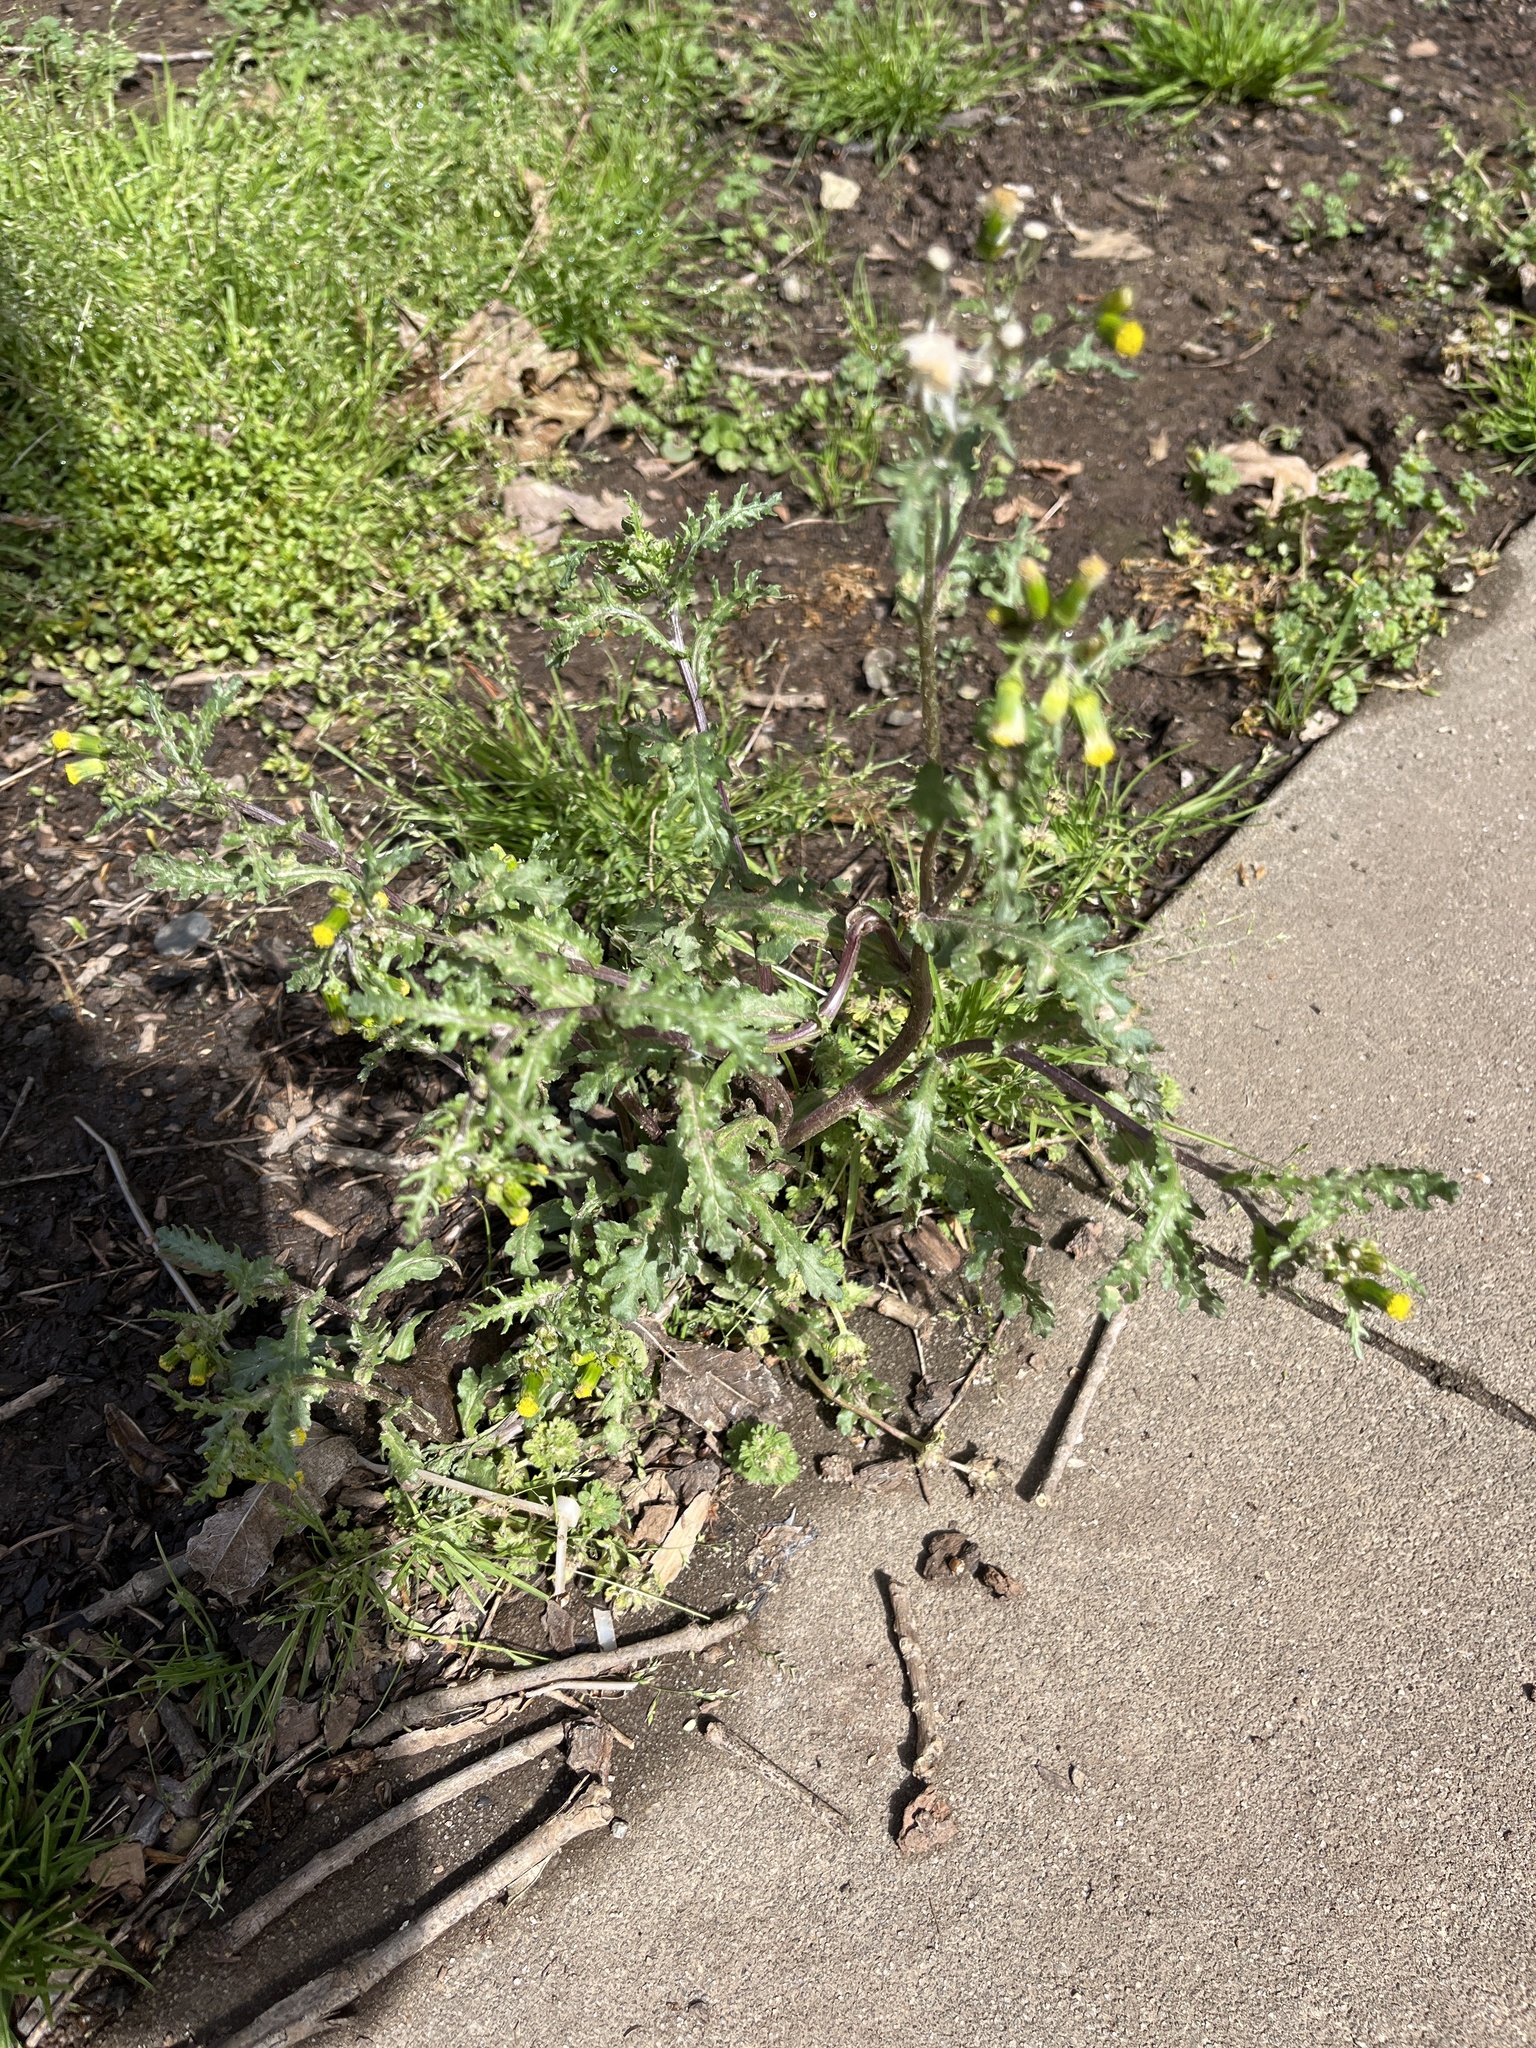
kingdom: Plantae
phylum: Tracheophyta
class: Magnoliopsida
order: Asterales
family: Asteraceae
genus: Senecio
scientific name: Senecio vulgaris
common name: Old-man-in-the-spring
